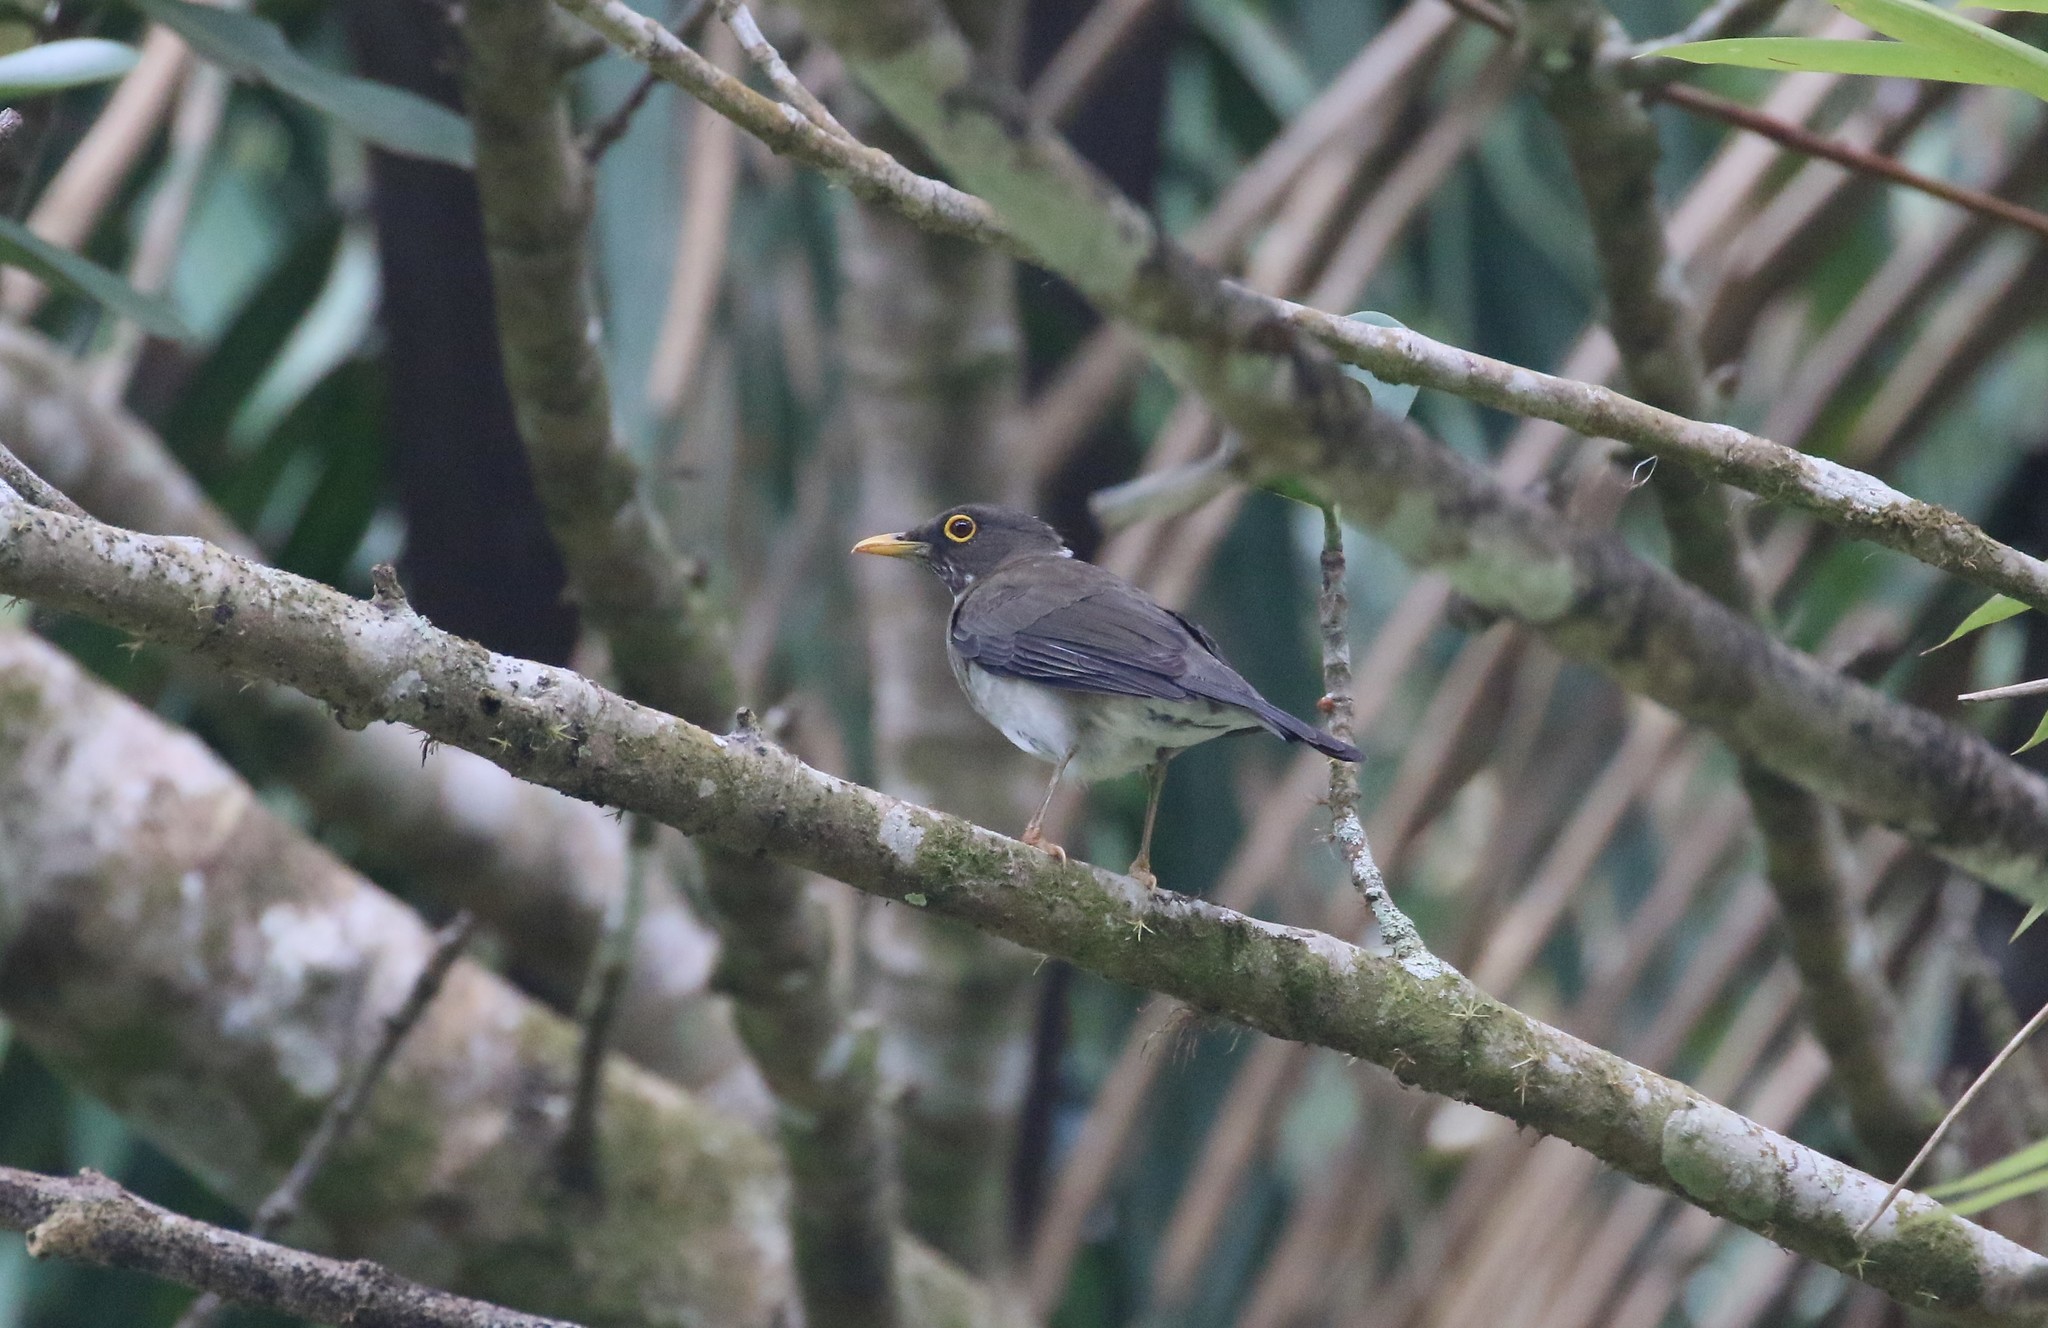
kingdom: Animalia
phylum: Chordata
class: Aves
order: Passeriformes
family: Turdidae
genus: Turdus
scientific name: Turdus assimilis
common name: White-throated thrush
